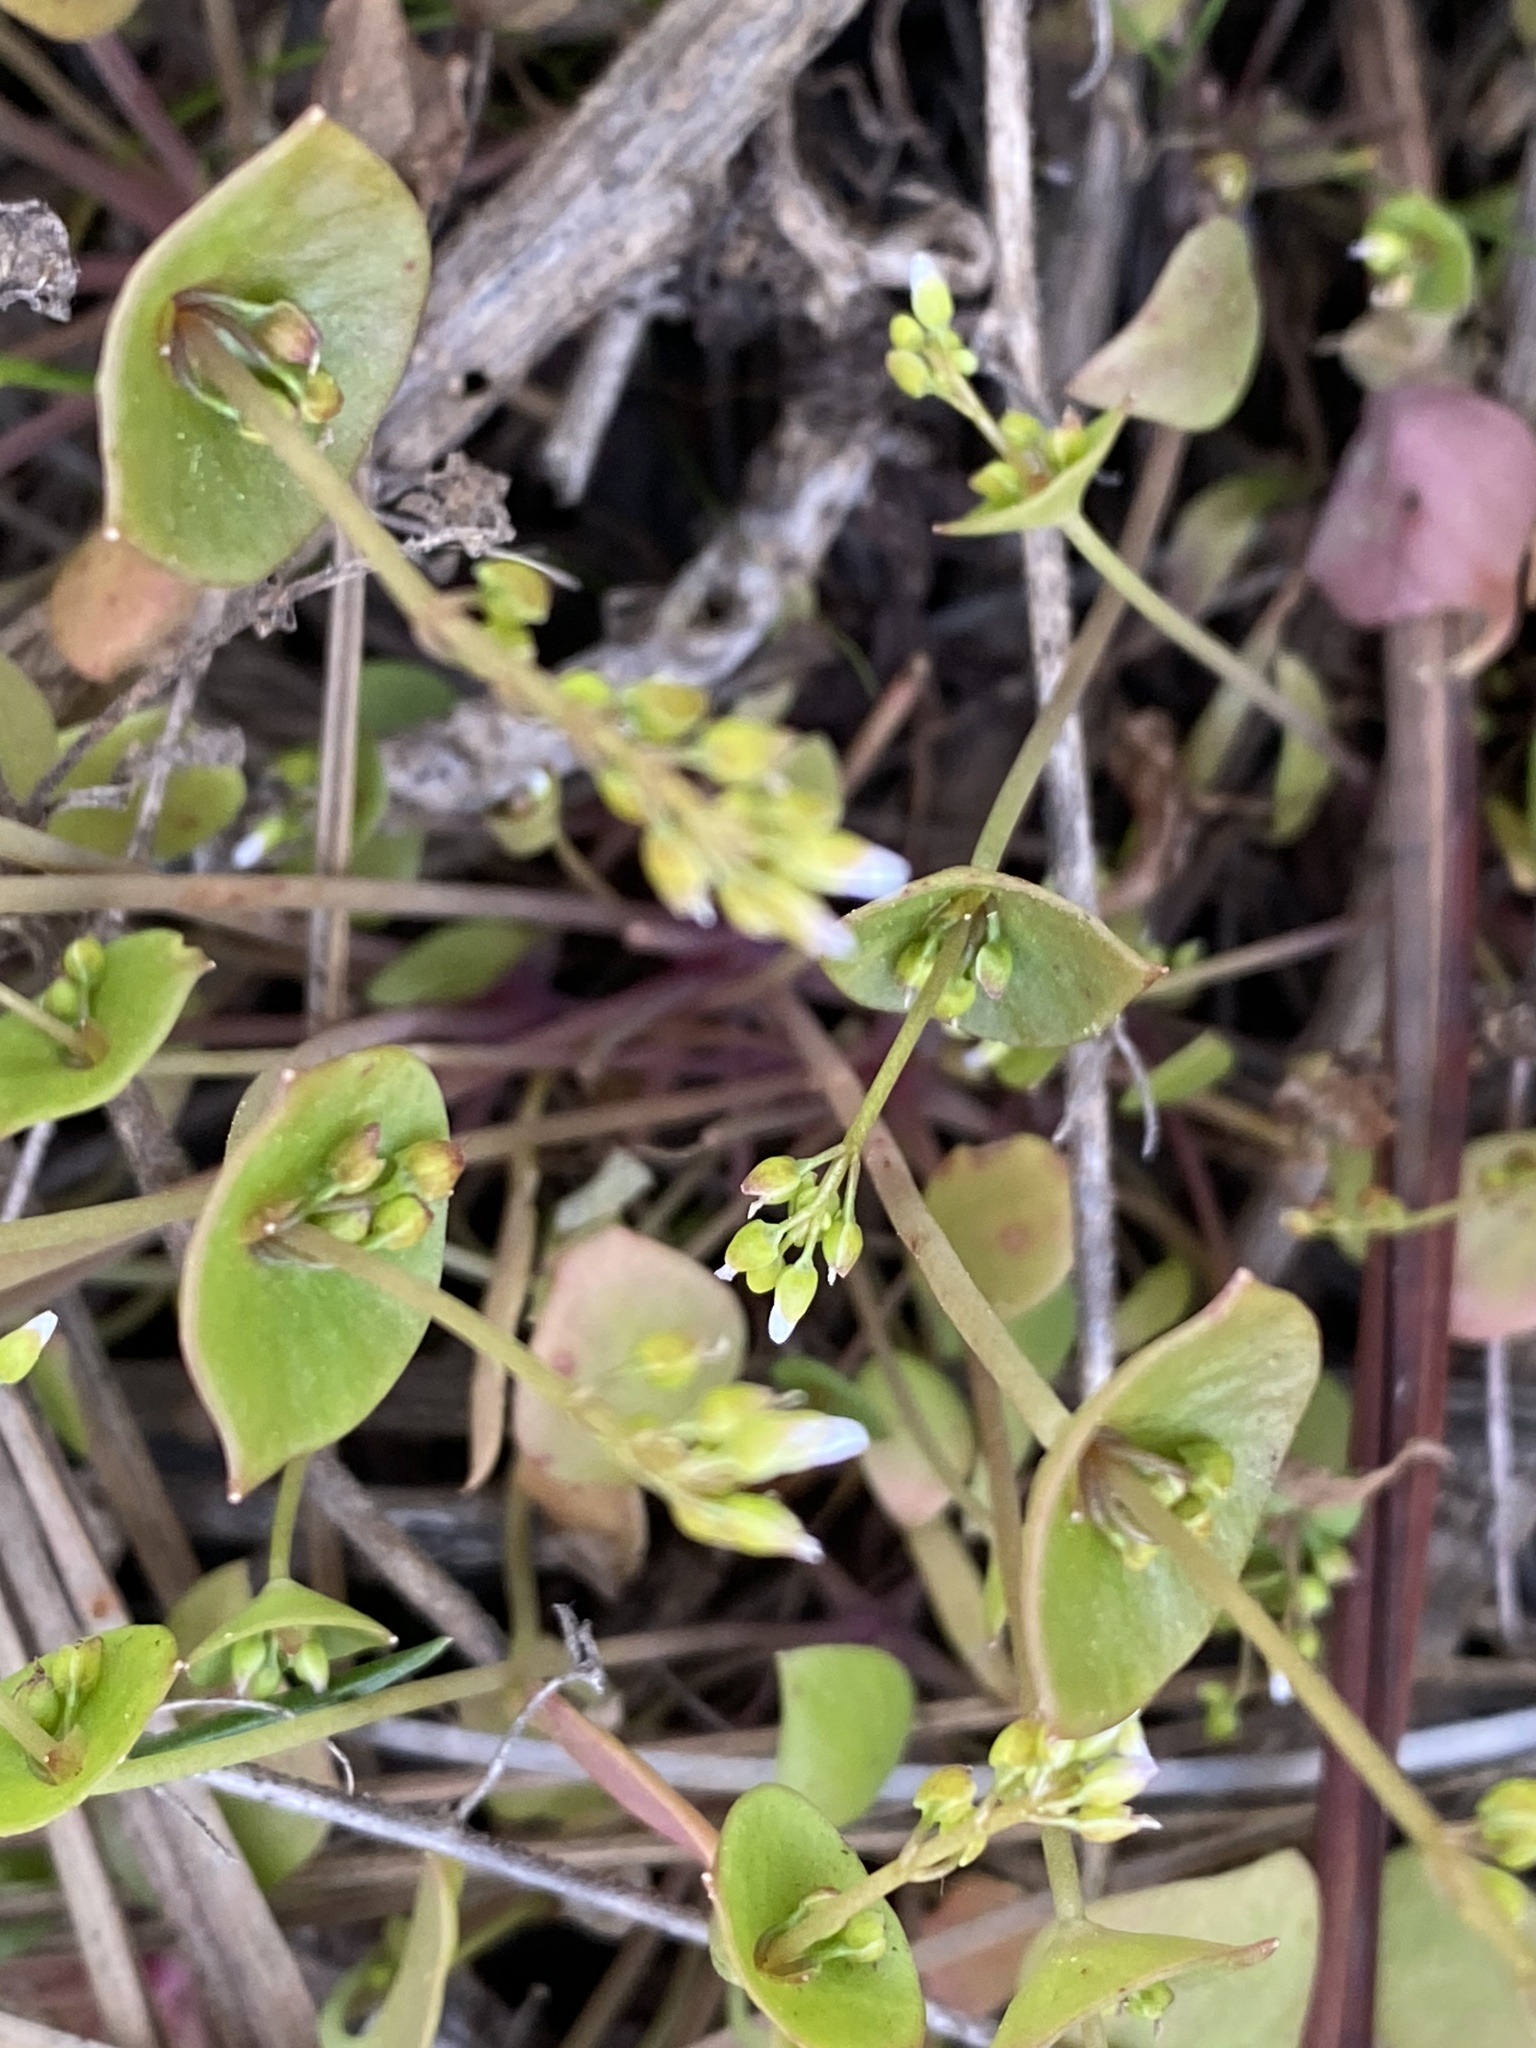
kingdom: Plantae
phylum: Tracheophyta
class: Magnoliopsida
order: Caryophyllales
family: Montiaceae
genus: Claytonia
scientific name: Claytonia perfoliata
